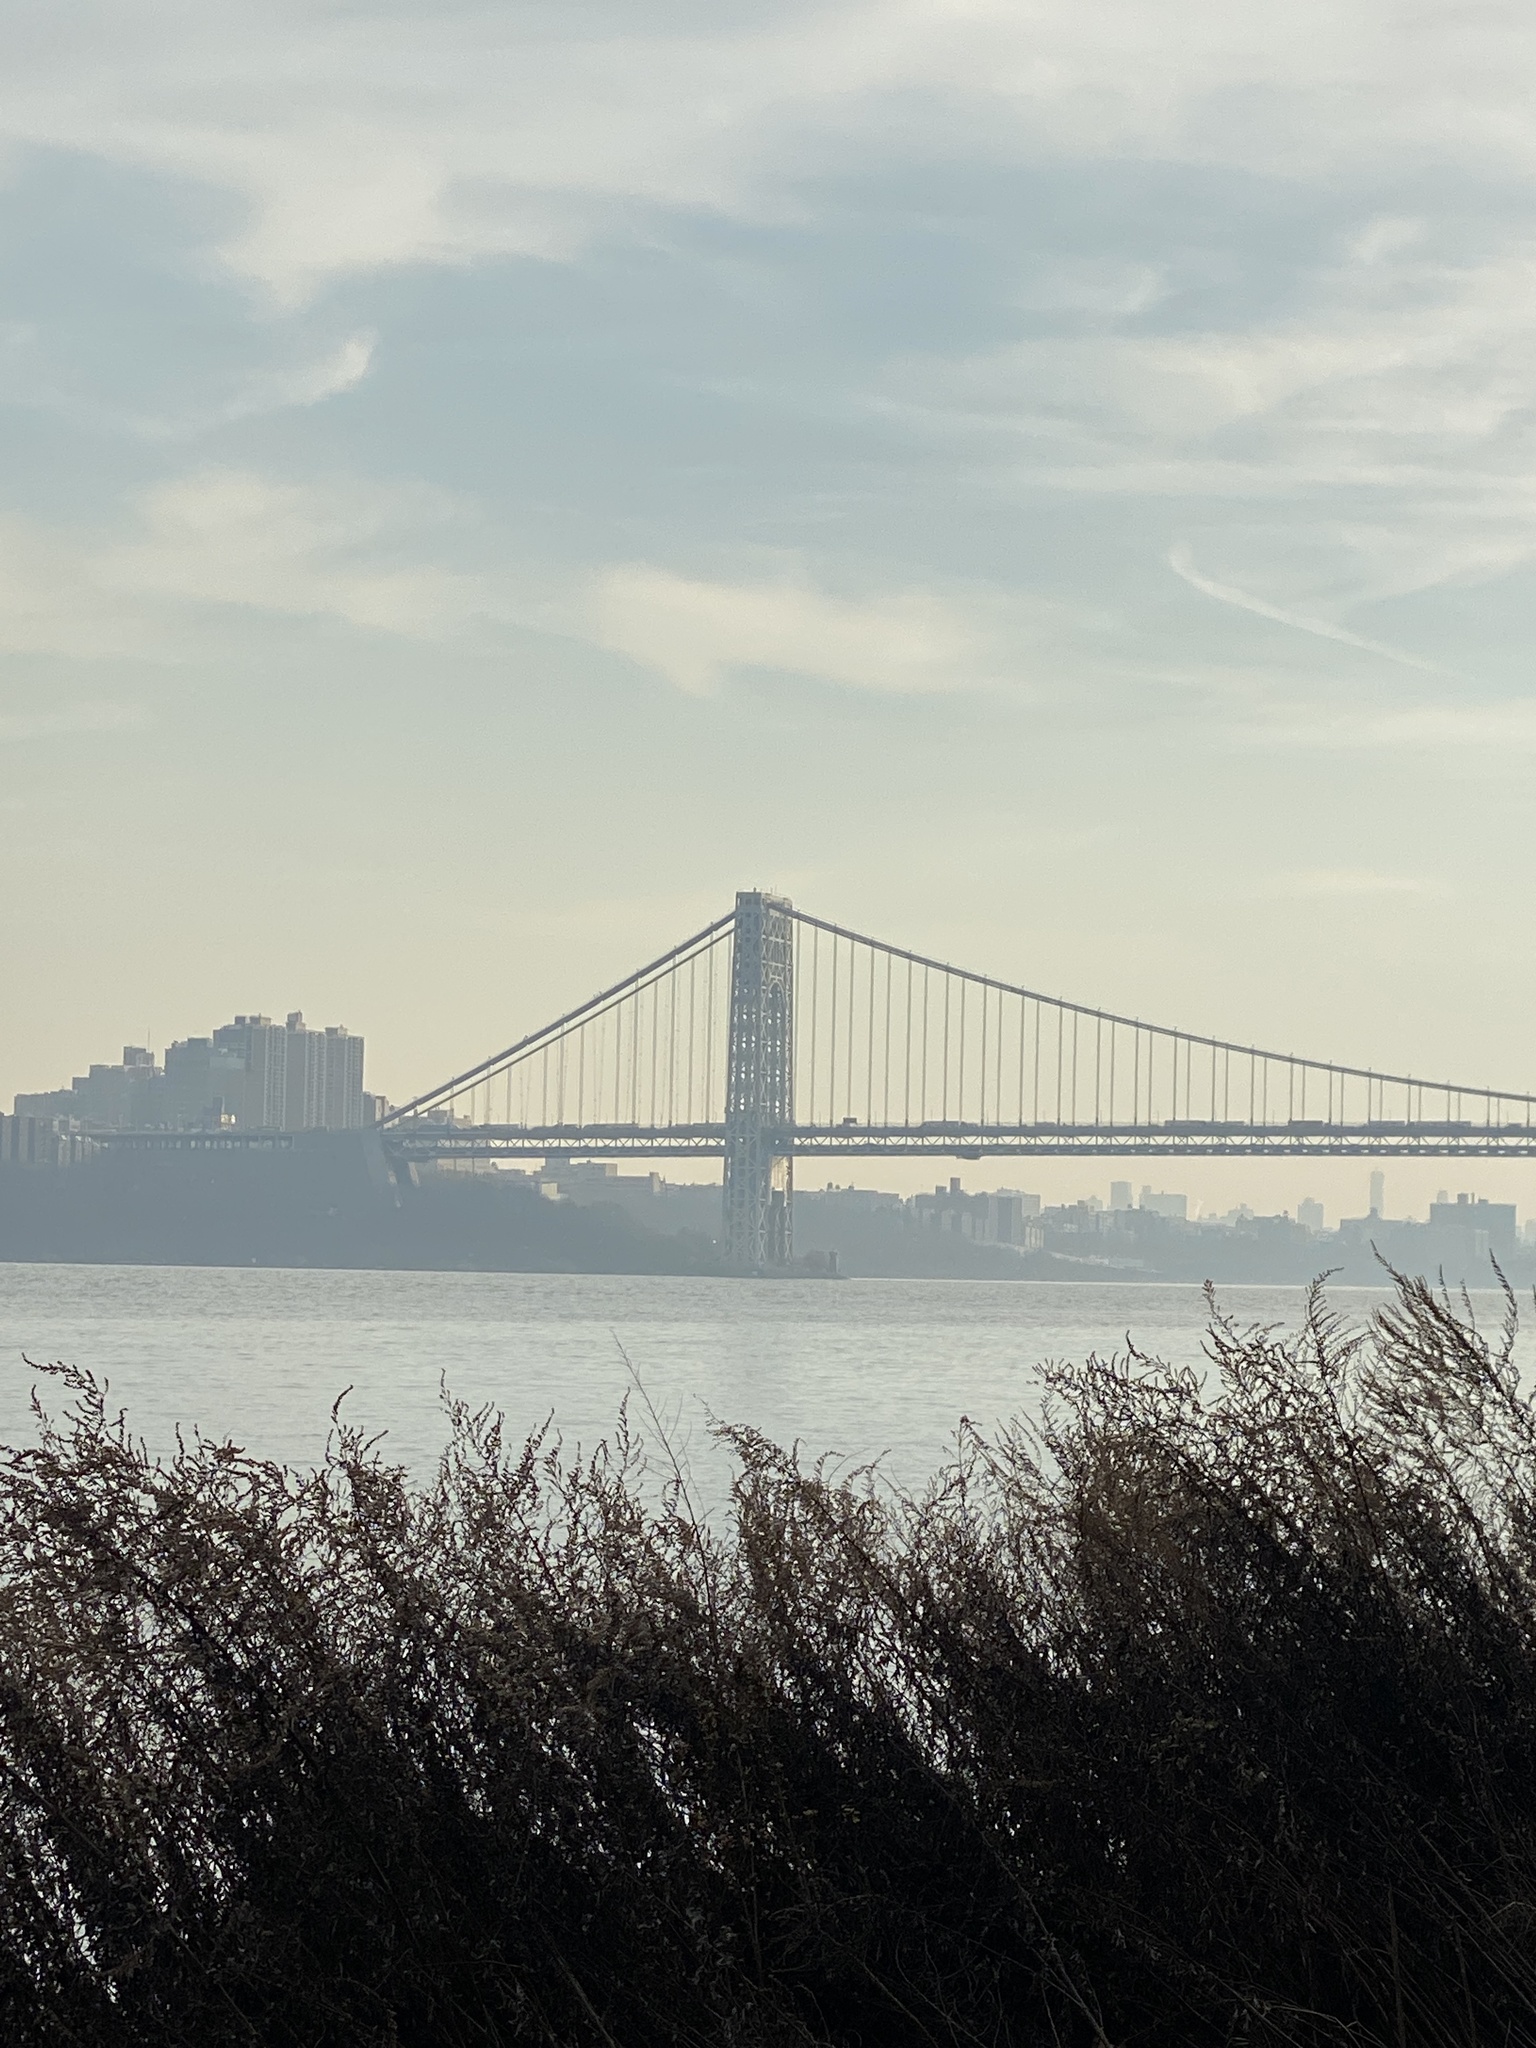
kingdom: Animalia
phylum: Chordata
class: Aves
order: Anseriformes
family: Anatidae
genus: Branta
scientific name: Branta canadensis
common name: Canada goose
